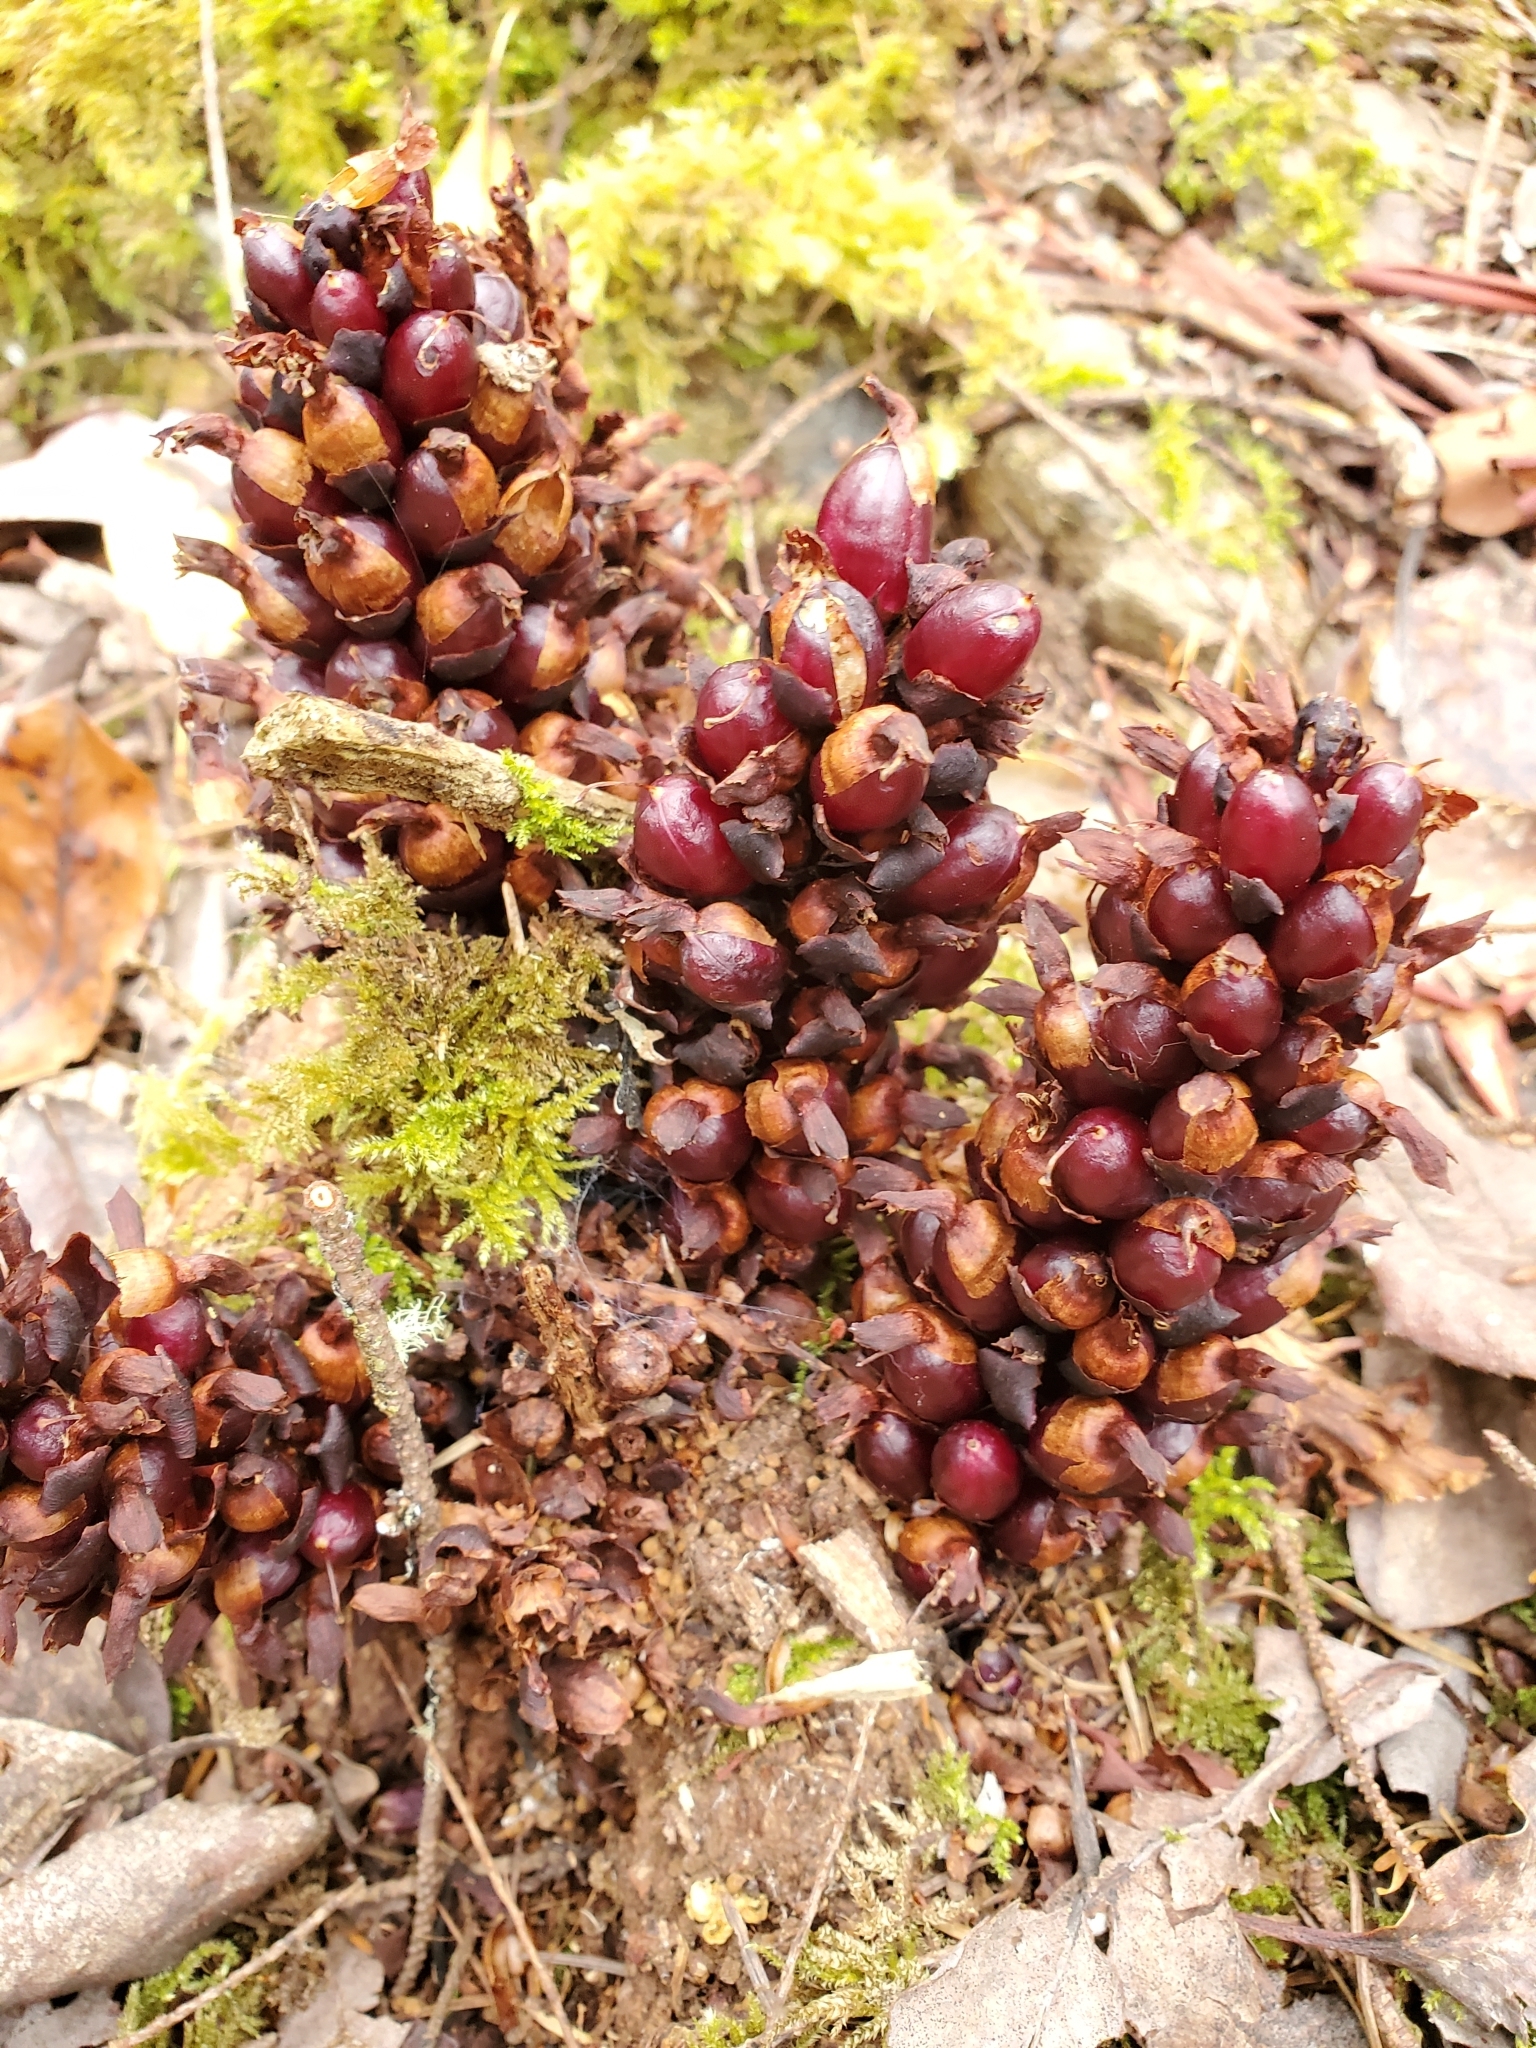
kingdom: Plantae
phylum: Tracheophyta
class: Magnoliopsida
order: Lamiales
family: Orobanchaceae
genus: Kopsiopsis
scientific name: Kopsiopsis hookeri
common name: Hooker's groundcone
